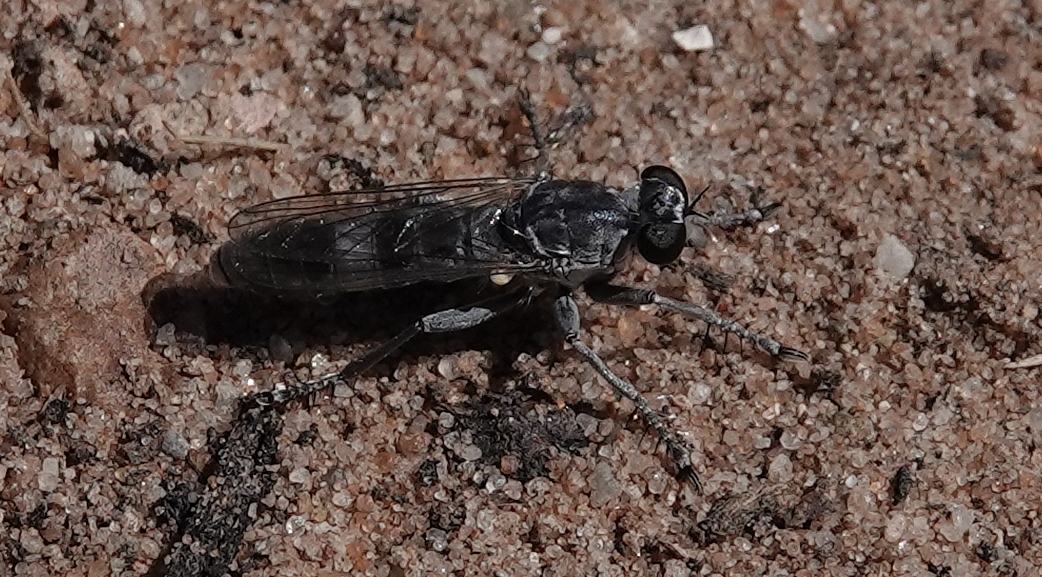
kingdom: Animalia
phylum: Arthropoda
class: Insecta
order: Diptera
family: Asilidae
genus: Stichopogon
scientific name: Stichopogon trifasciatus
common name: Three-banded robber fly
